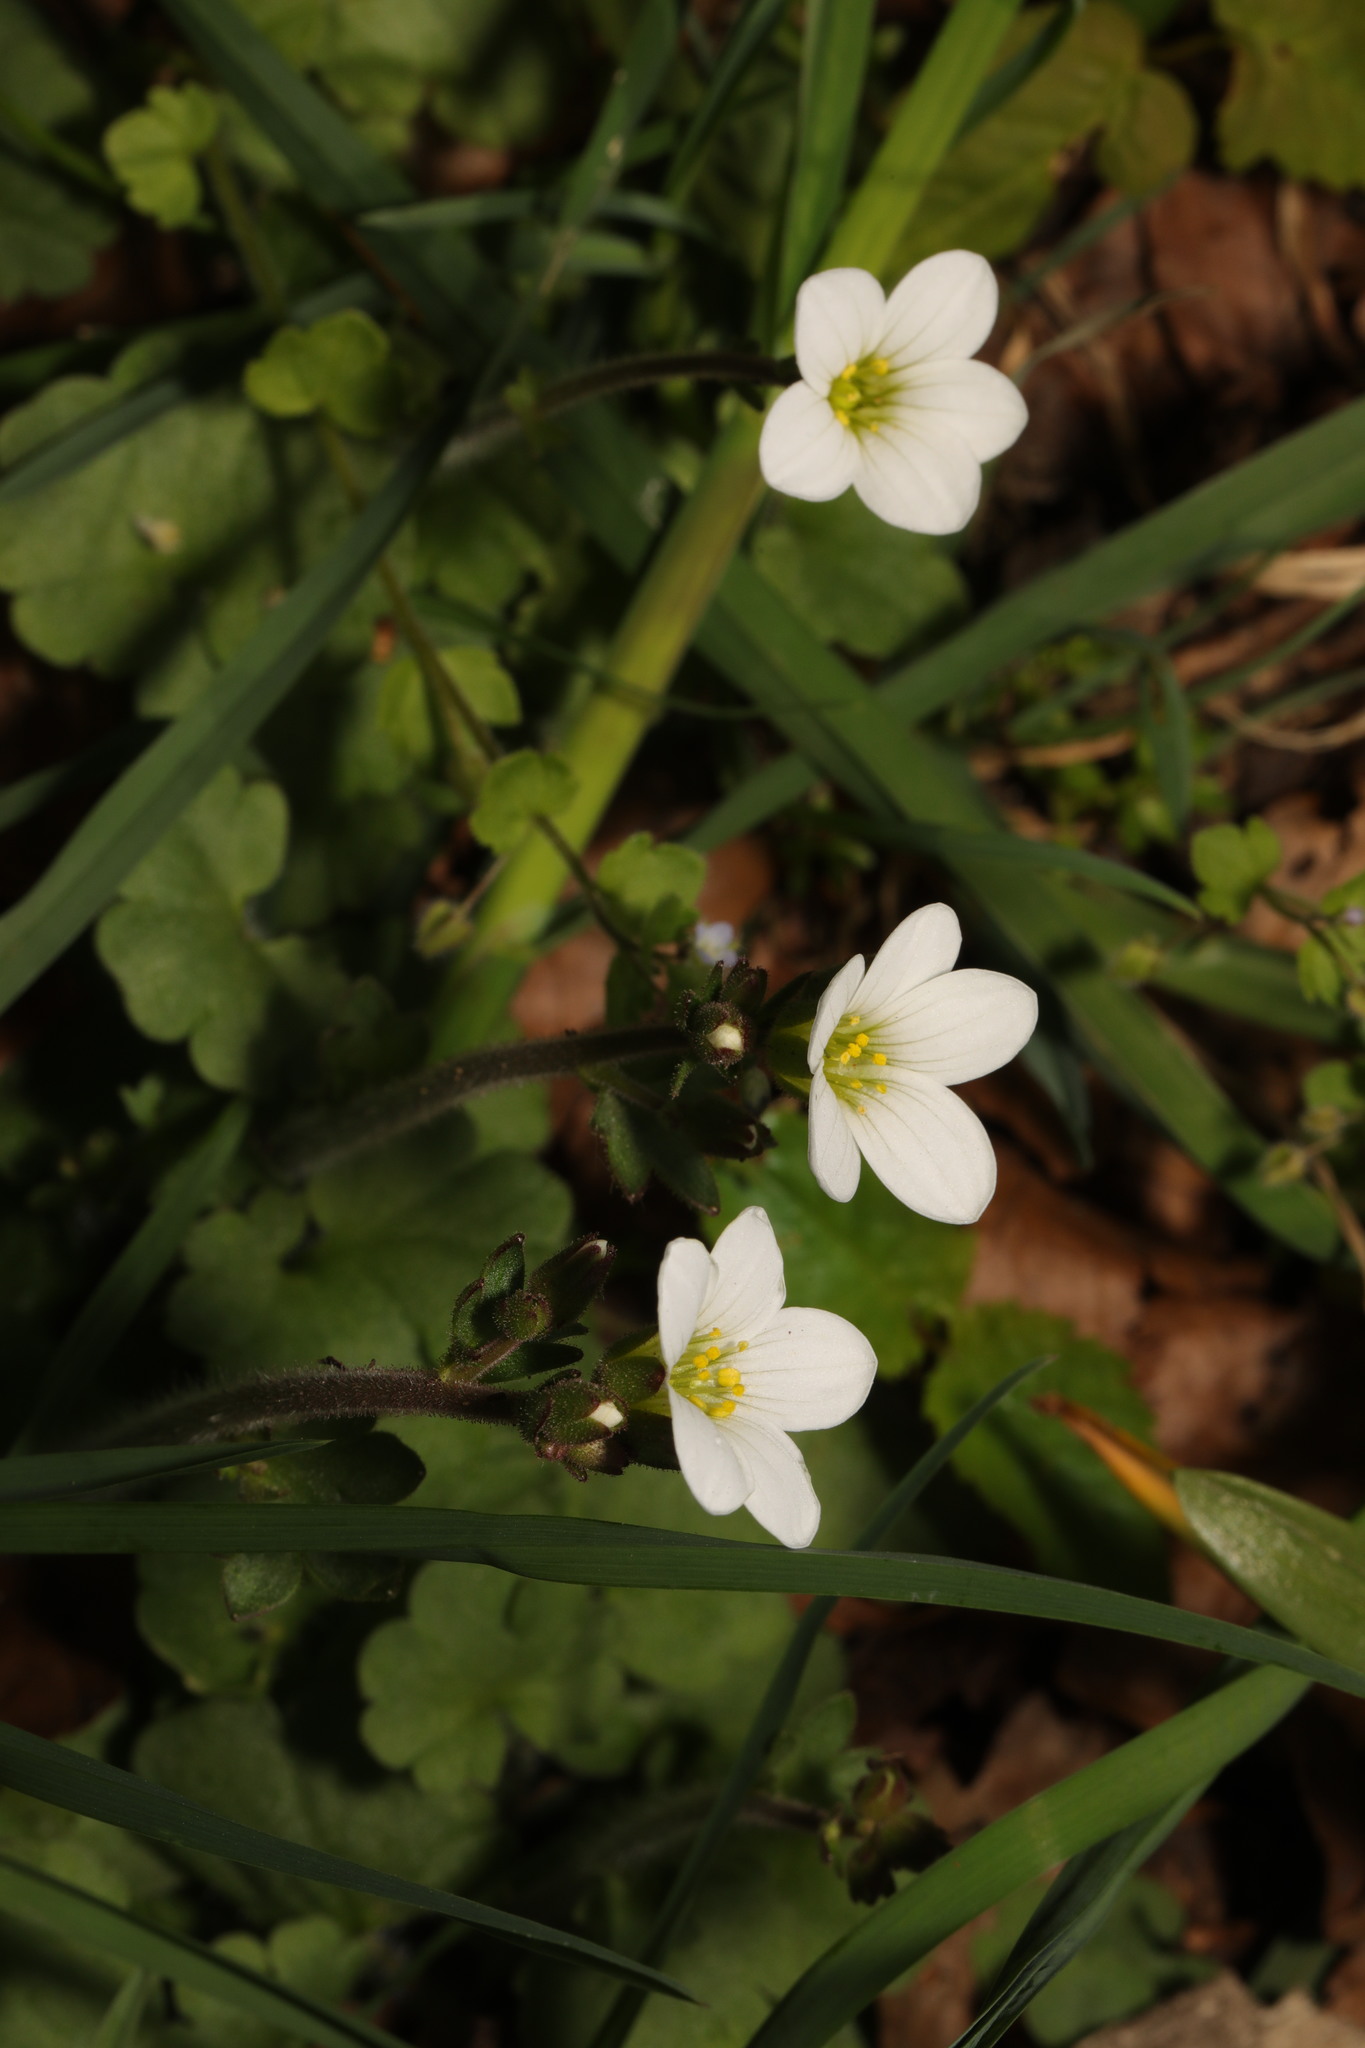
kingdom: Plantae
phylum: Tracheophyta
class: Magnoliopsida
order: Saxifragales
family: Saxifragaceae
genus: Saxifraga
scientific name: Saxifraga granulata
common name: Meadow saxifrage
